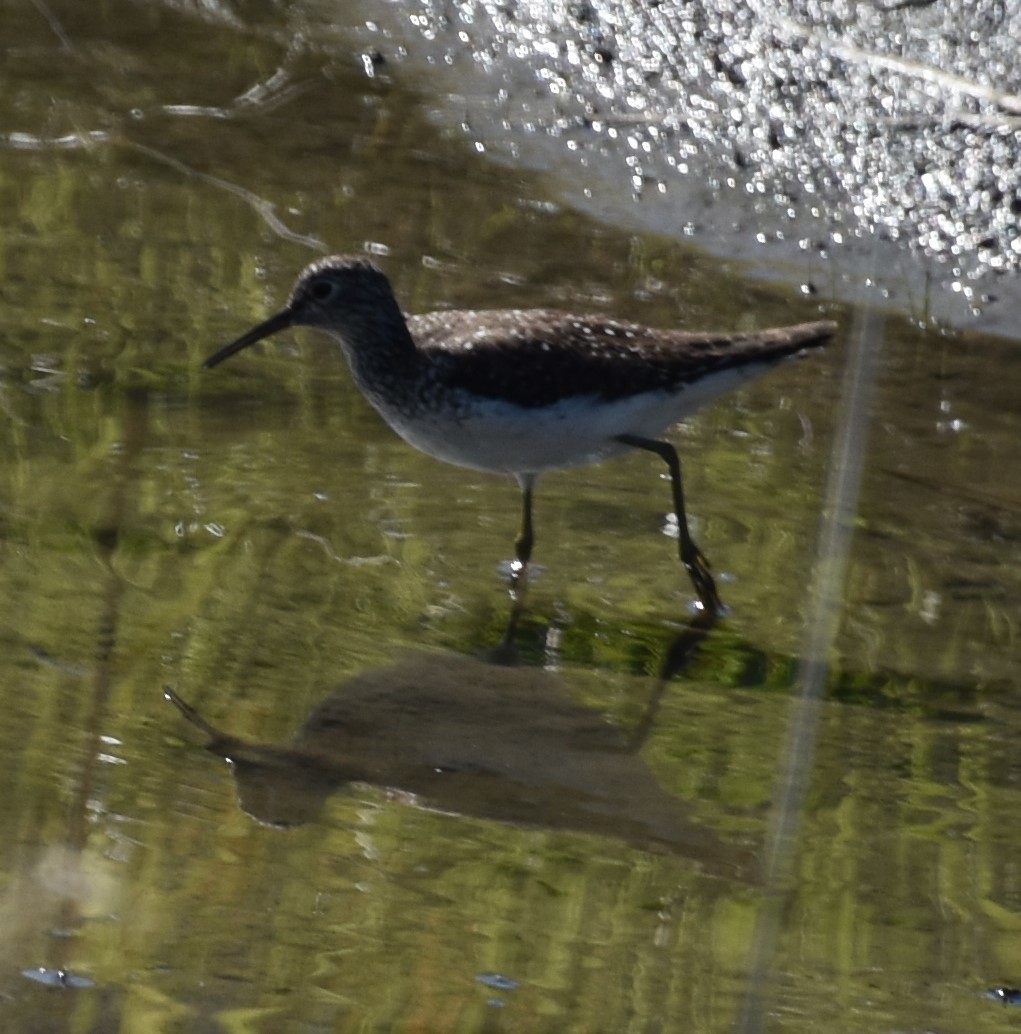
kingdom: Animalia
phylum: Chordata
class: Aves
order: Charadriiformes
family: Scolopacidae
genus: Tringa
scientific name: Tringa solitaria
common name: Solitary sandpiper
